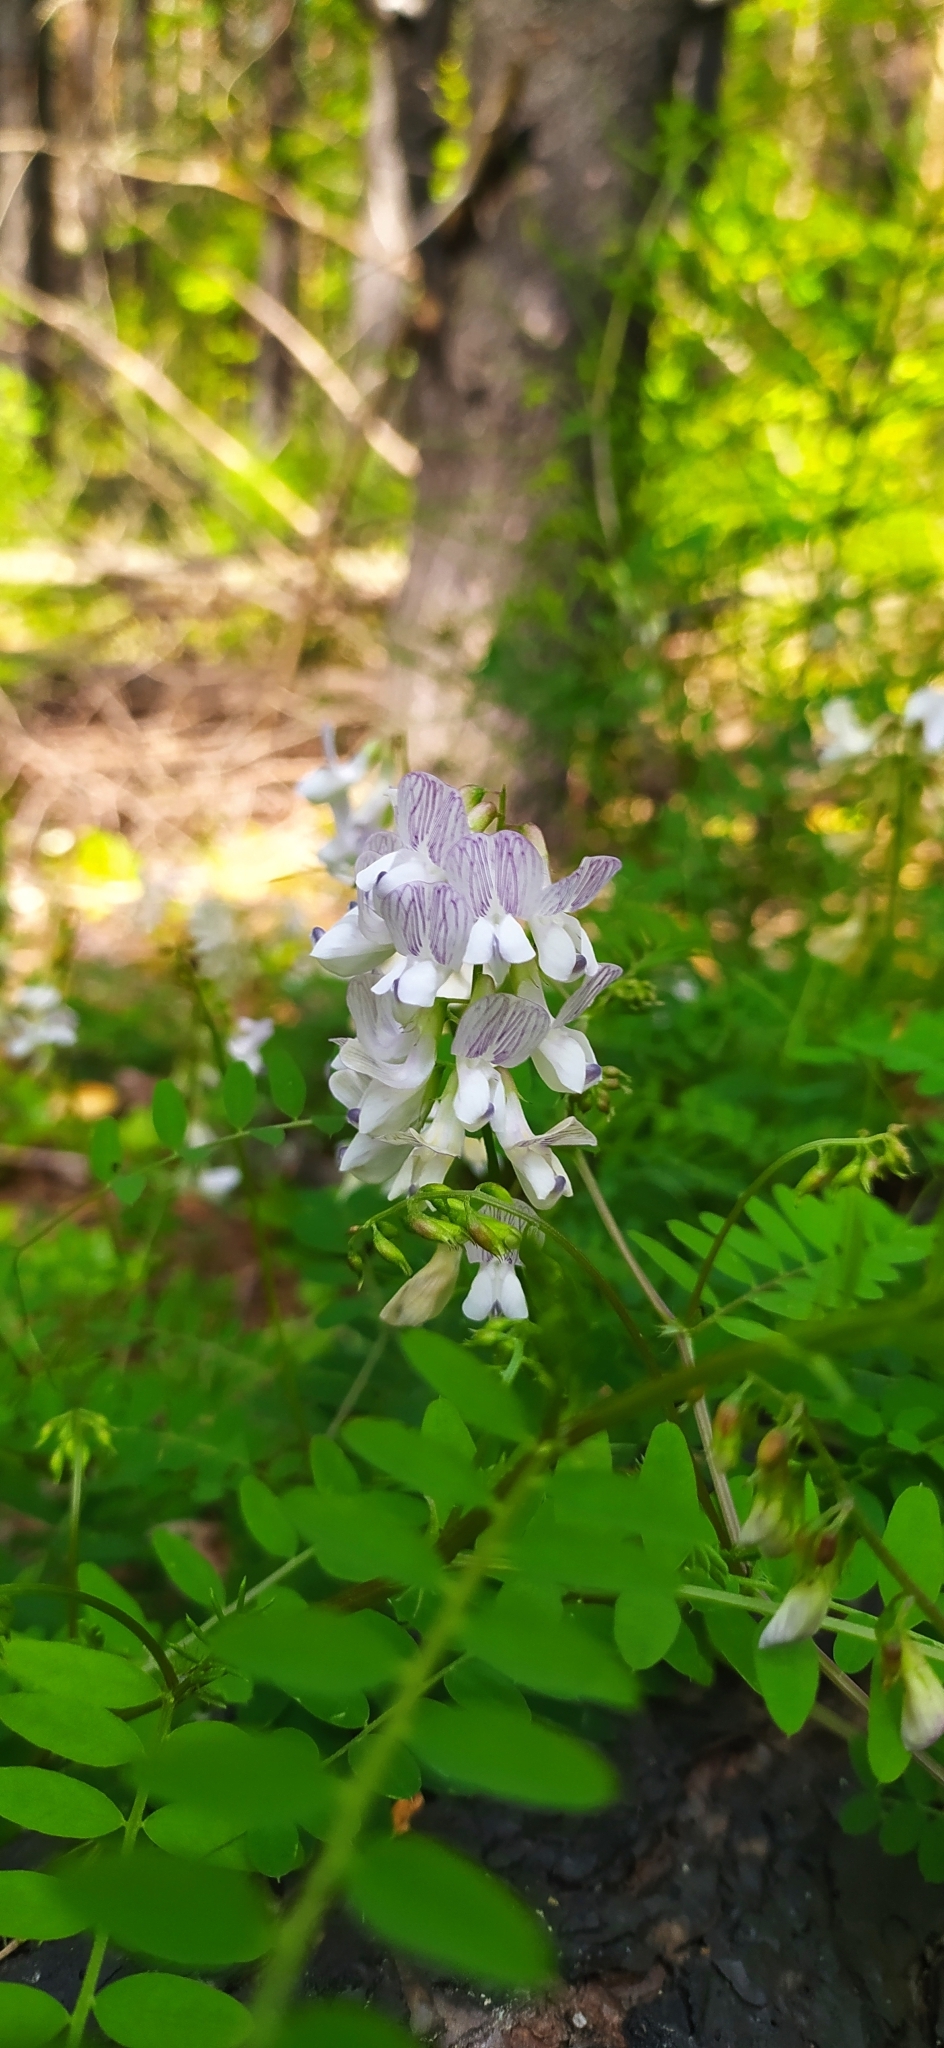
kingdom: Plantae
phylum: Tracheophyta
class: Magnoliopsida
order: Fabales
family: Fabaceae
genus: Vicia
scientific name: Vicia sylvatica
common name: Wood vetch
